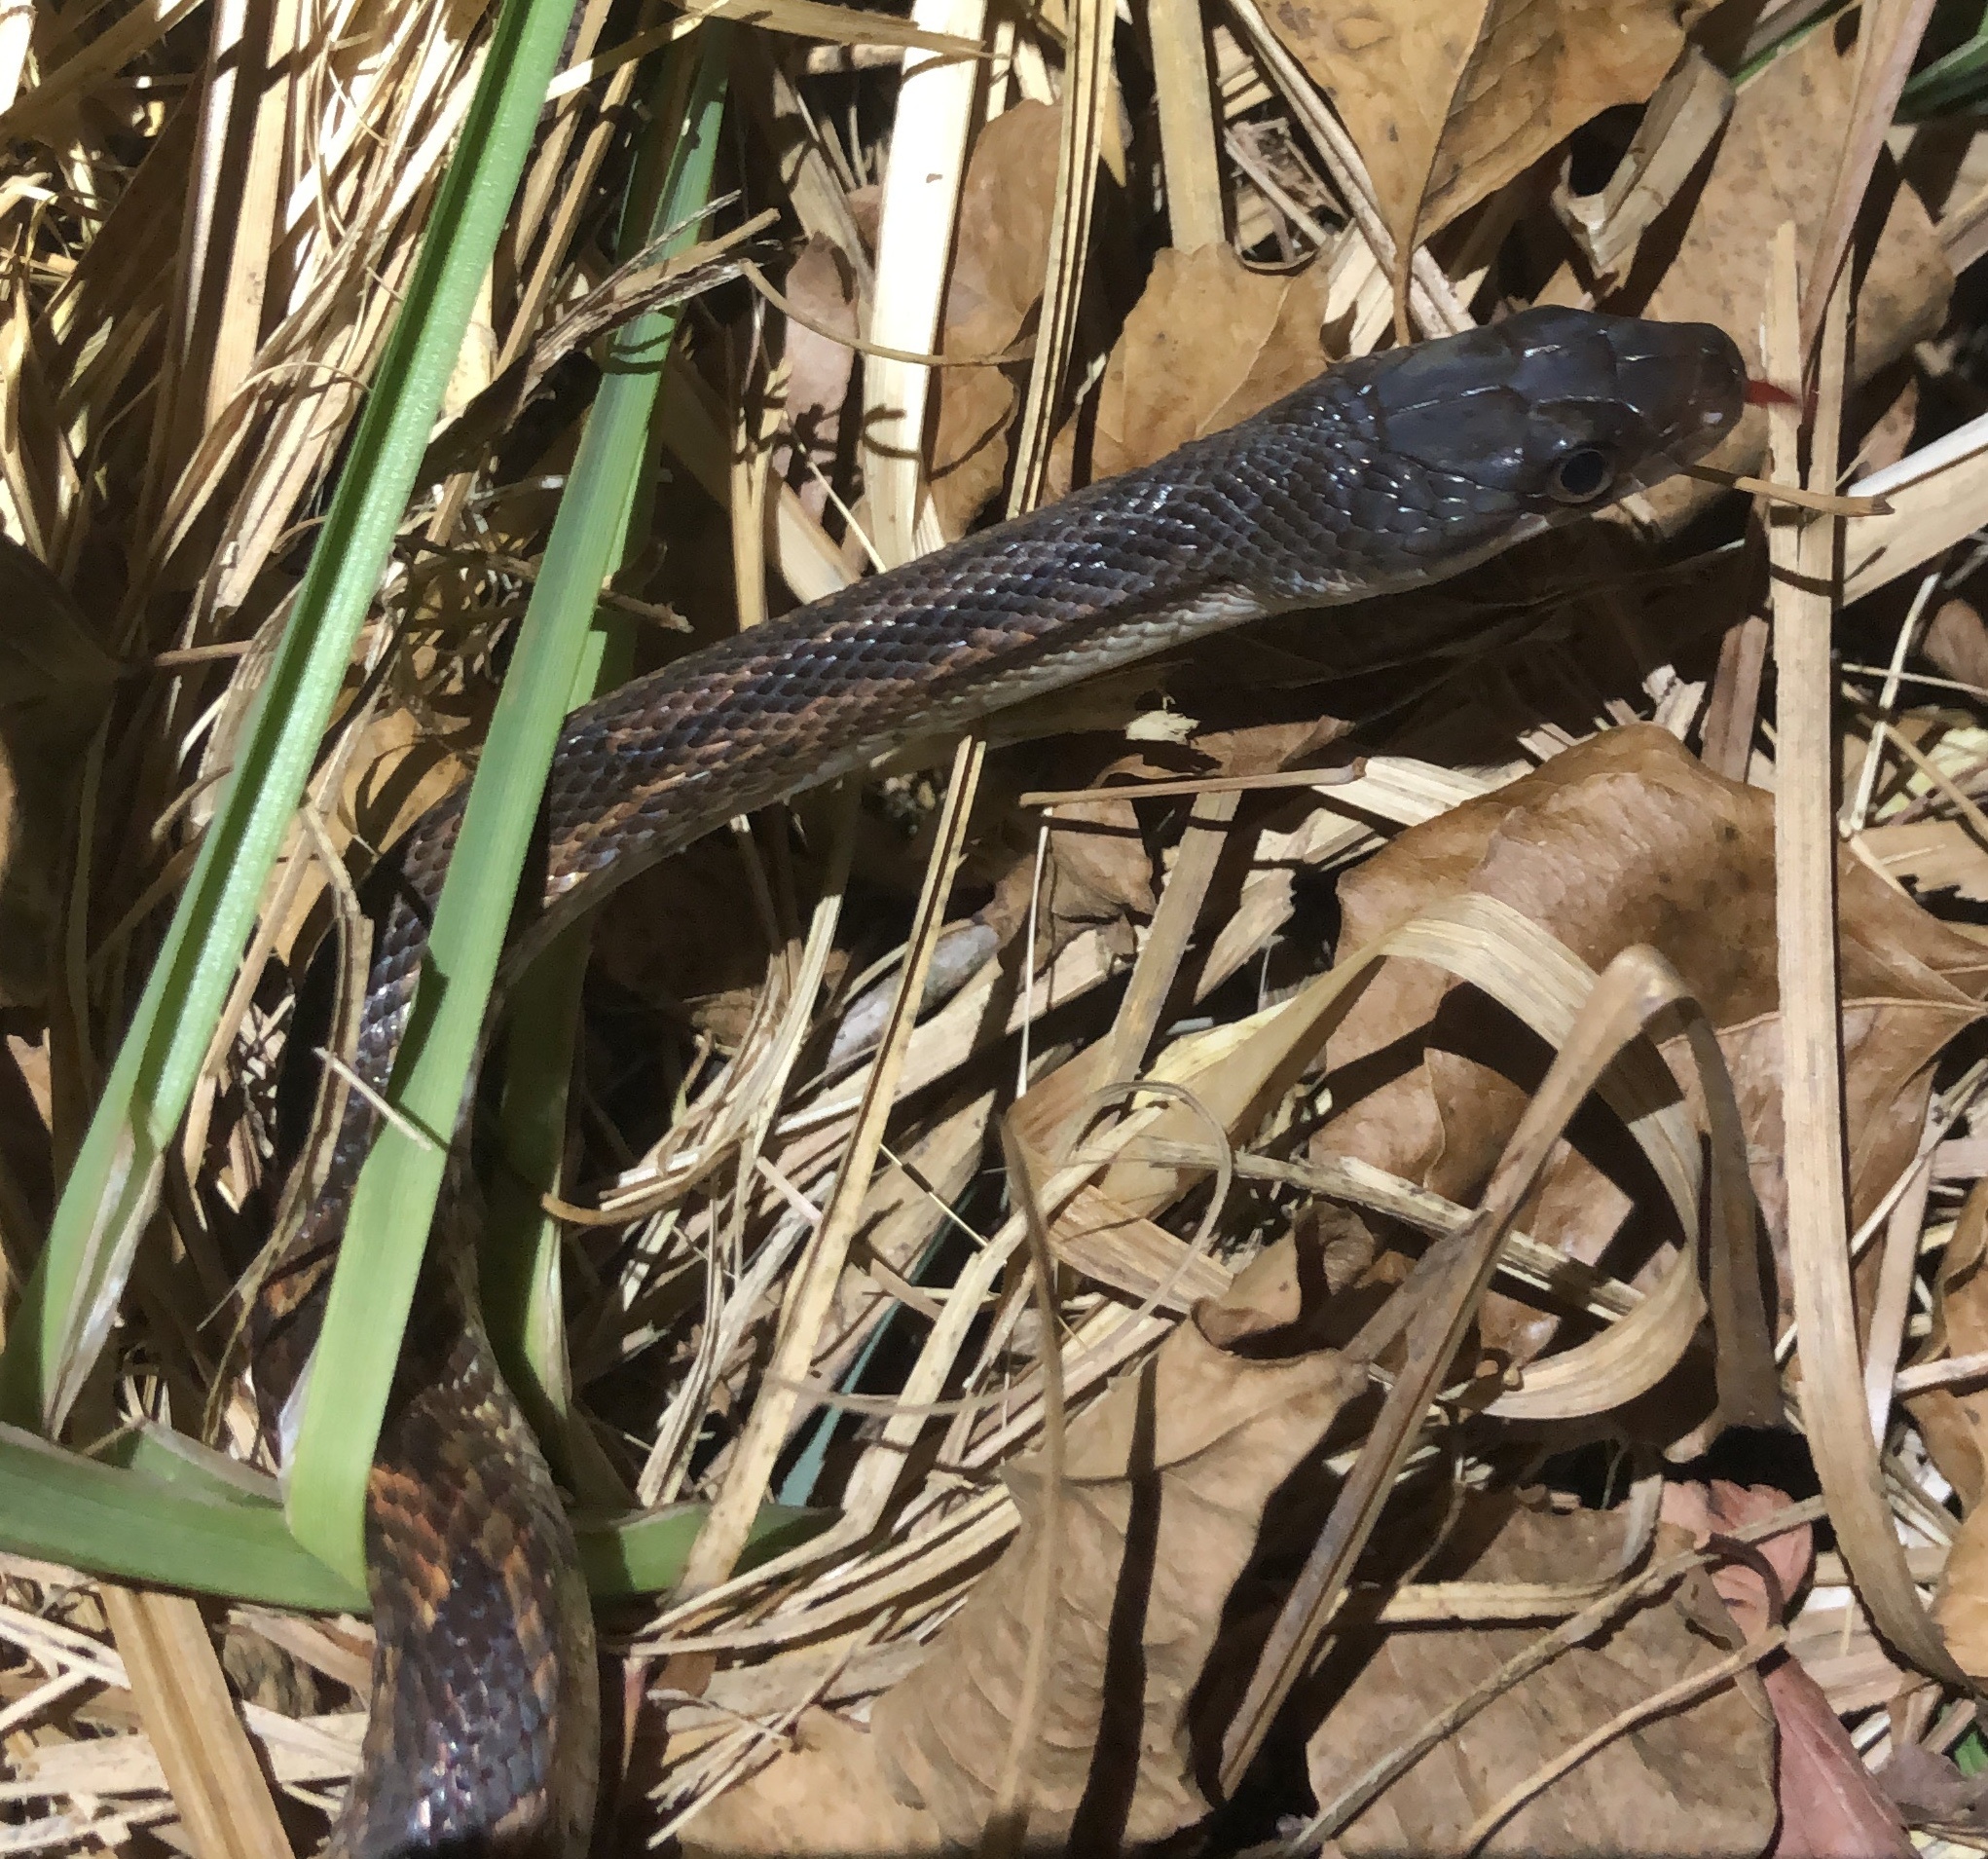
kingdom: Animalia
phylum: Chordata
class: Squamata
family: Colubridae
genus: Pantherophis
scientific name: Pantherophis obsoletus
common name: Black rat snake
